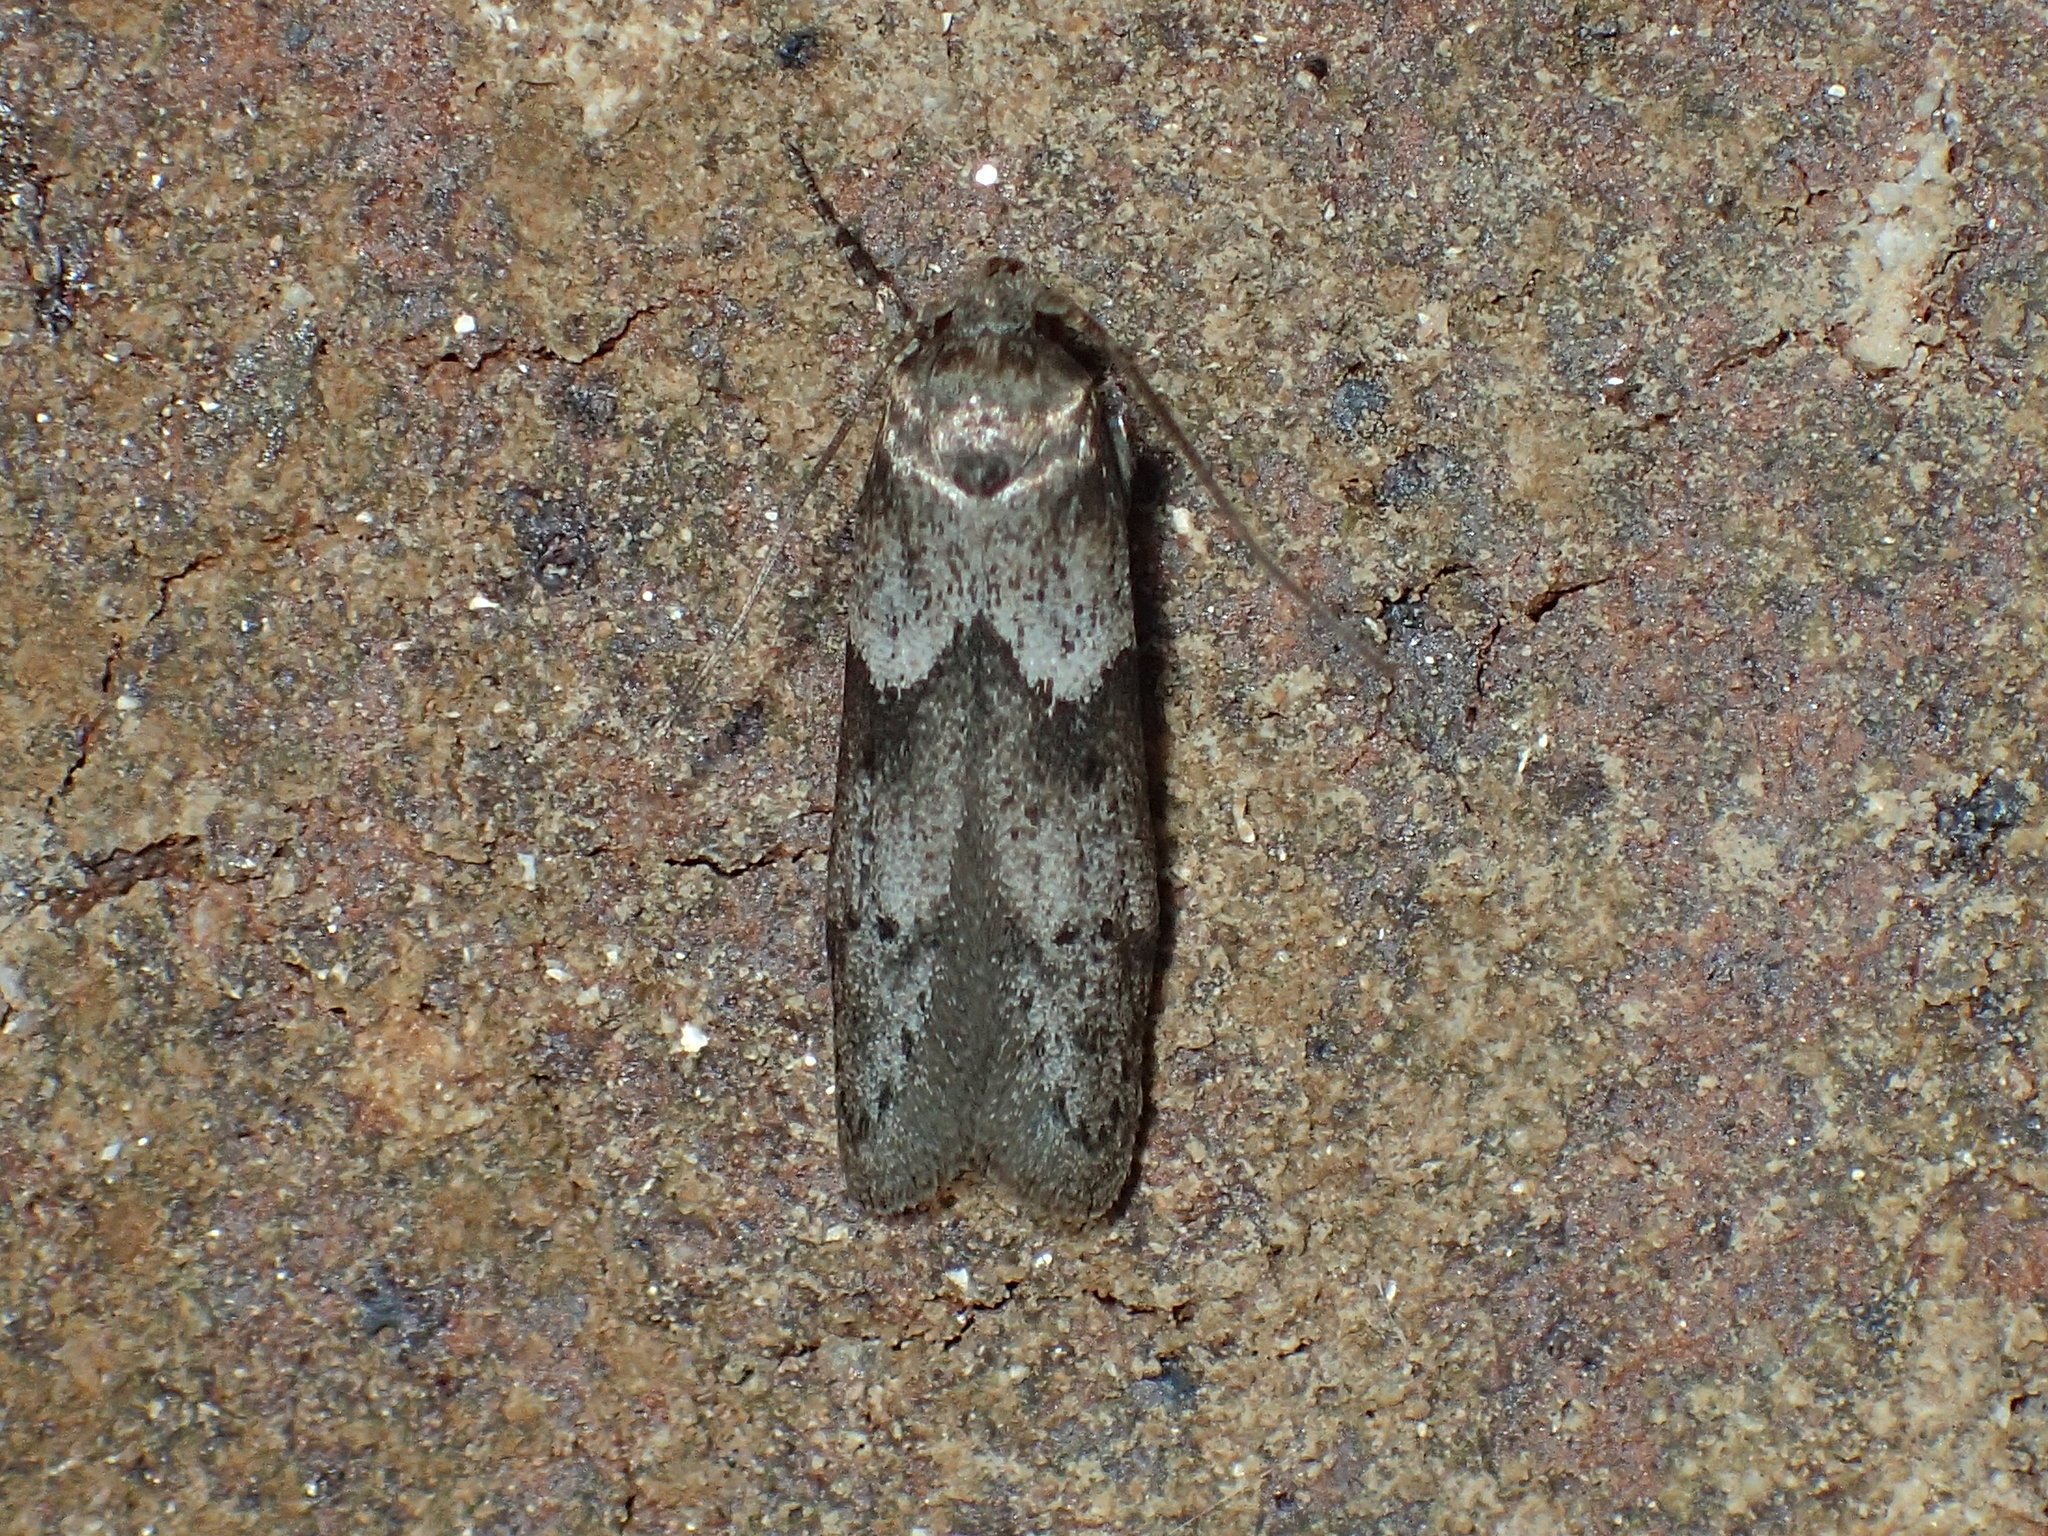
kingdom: Animalia
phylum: Arthropoda
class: Insecta
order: Lepidoptera
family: Blastobasidae
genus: Blastobasis
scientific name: Blastobasis glandulella
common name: Acorn moth
